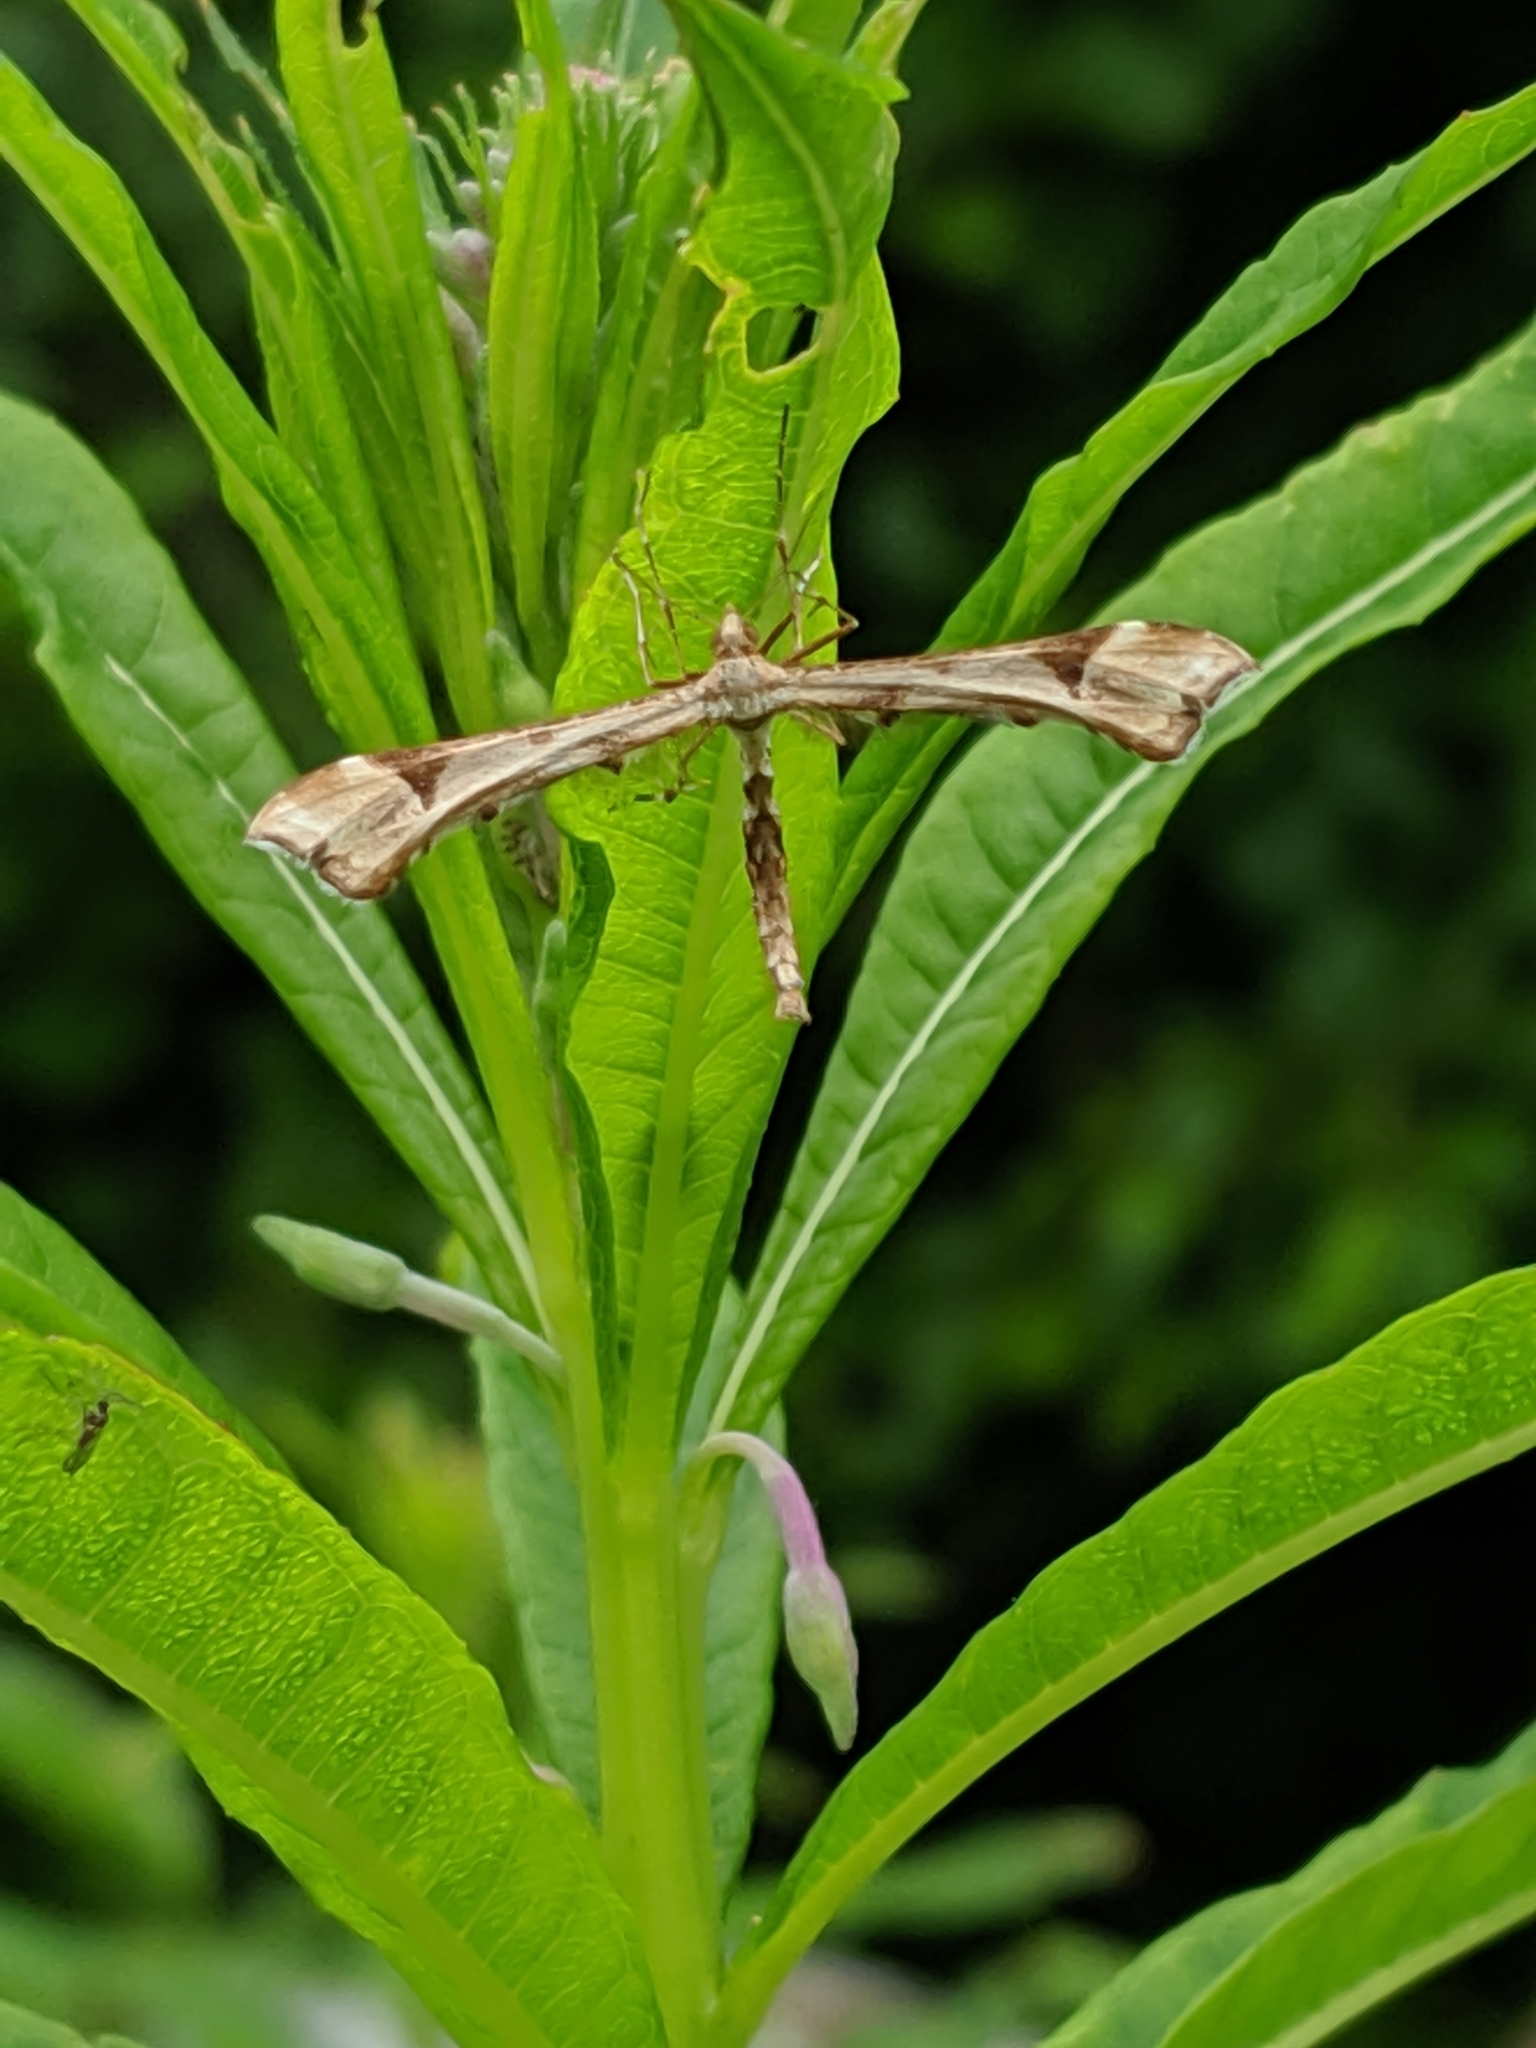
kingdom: Animalia
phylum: Arthropoda
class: Insecta
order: Lepidoptera
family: Pterophoridae
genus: Platyptilia
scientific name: Platyptilia carduidactylus
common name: Artichoke plume moth
